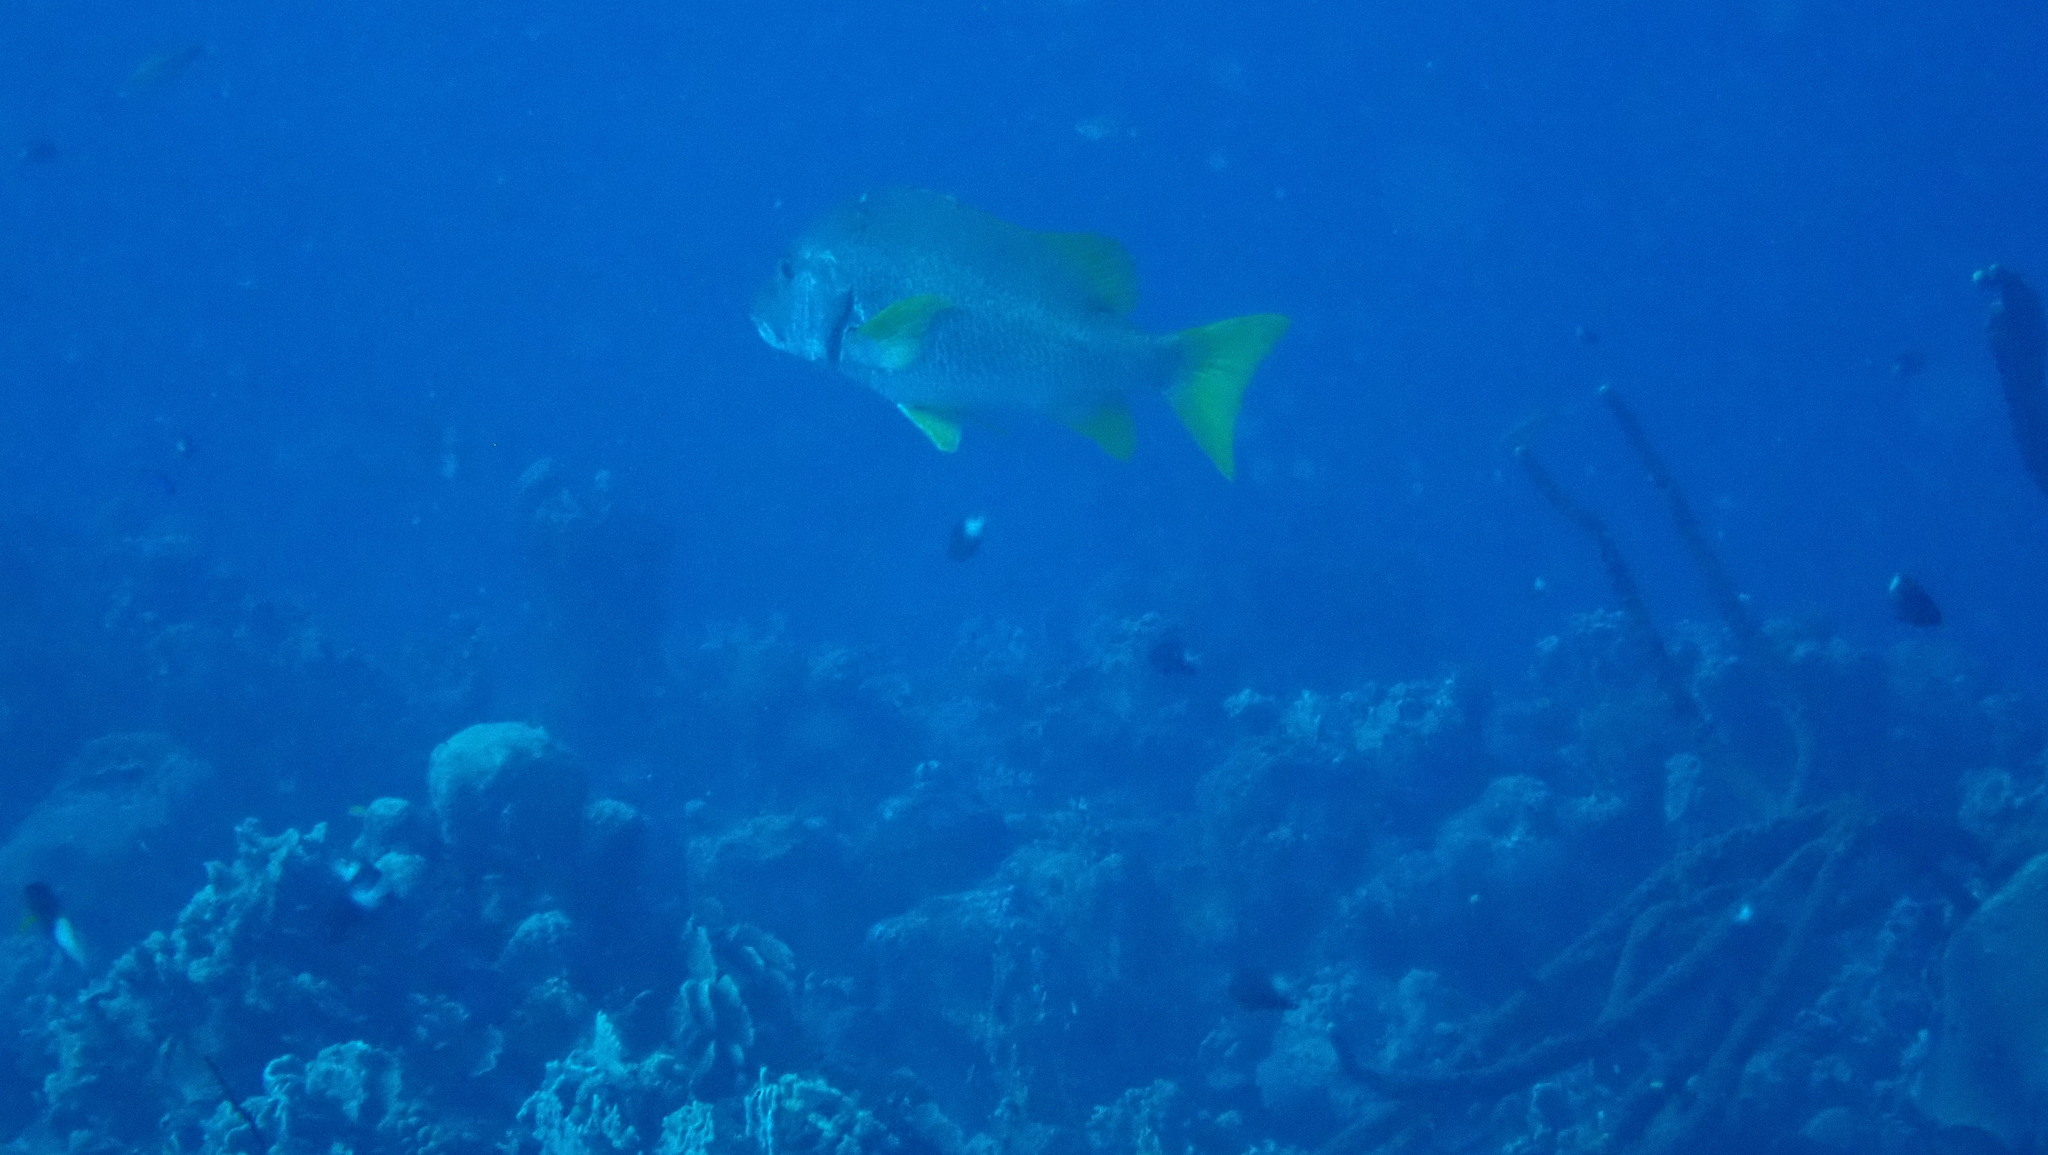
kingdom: Animalia
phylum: Chordata
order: Perciformes
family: Lutjanidae
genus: Lutjanus
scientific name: Lutjanus apodus
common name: Schoolmaster
